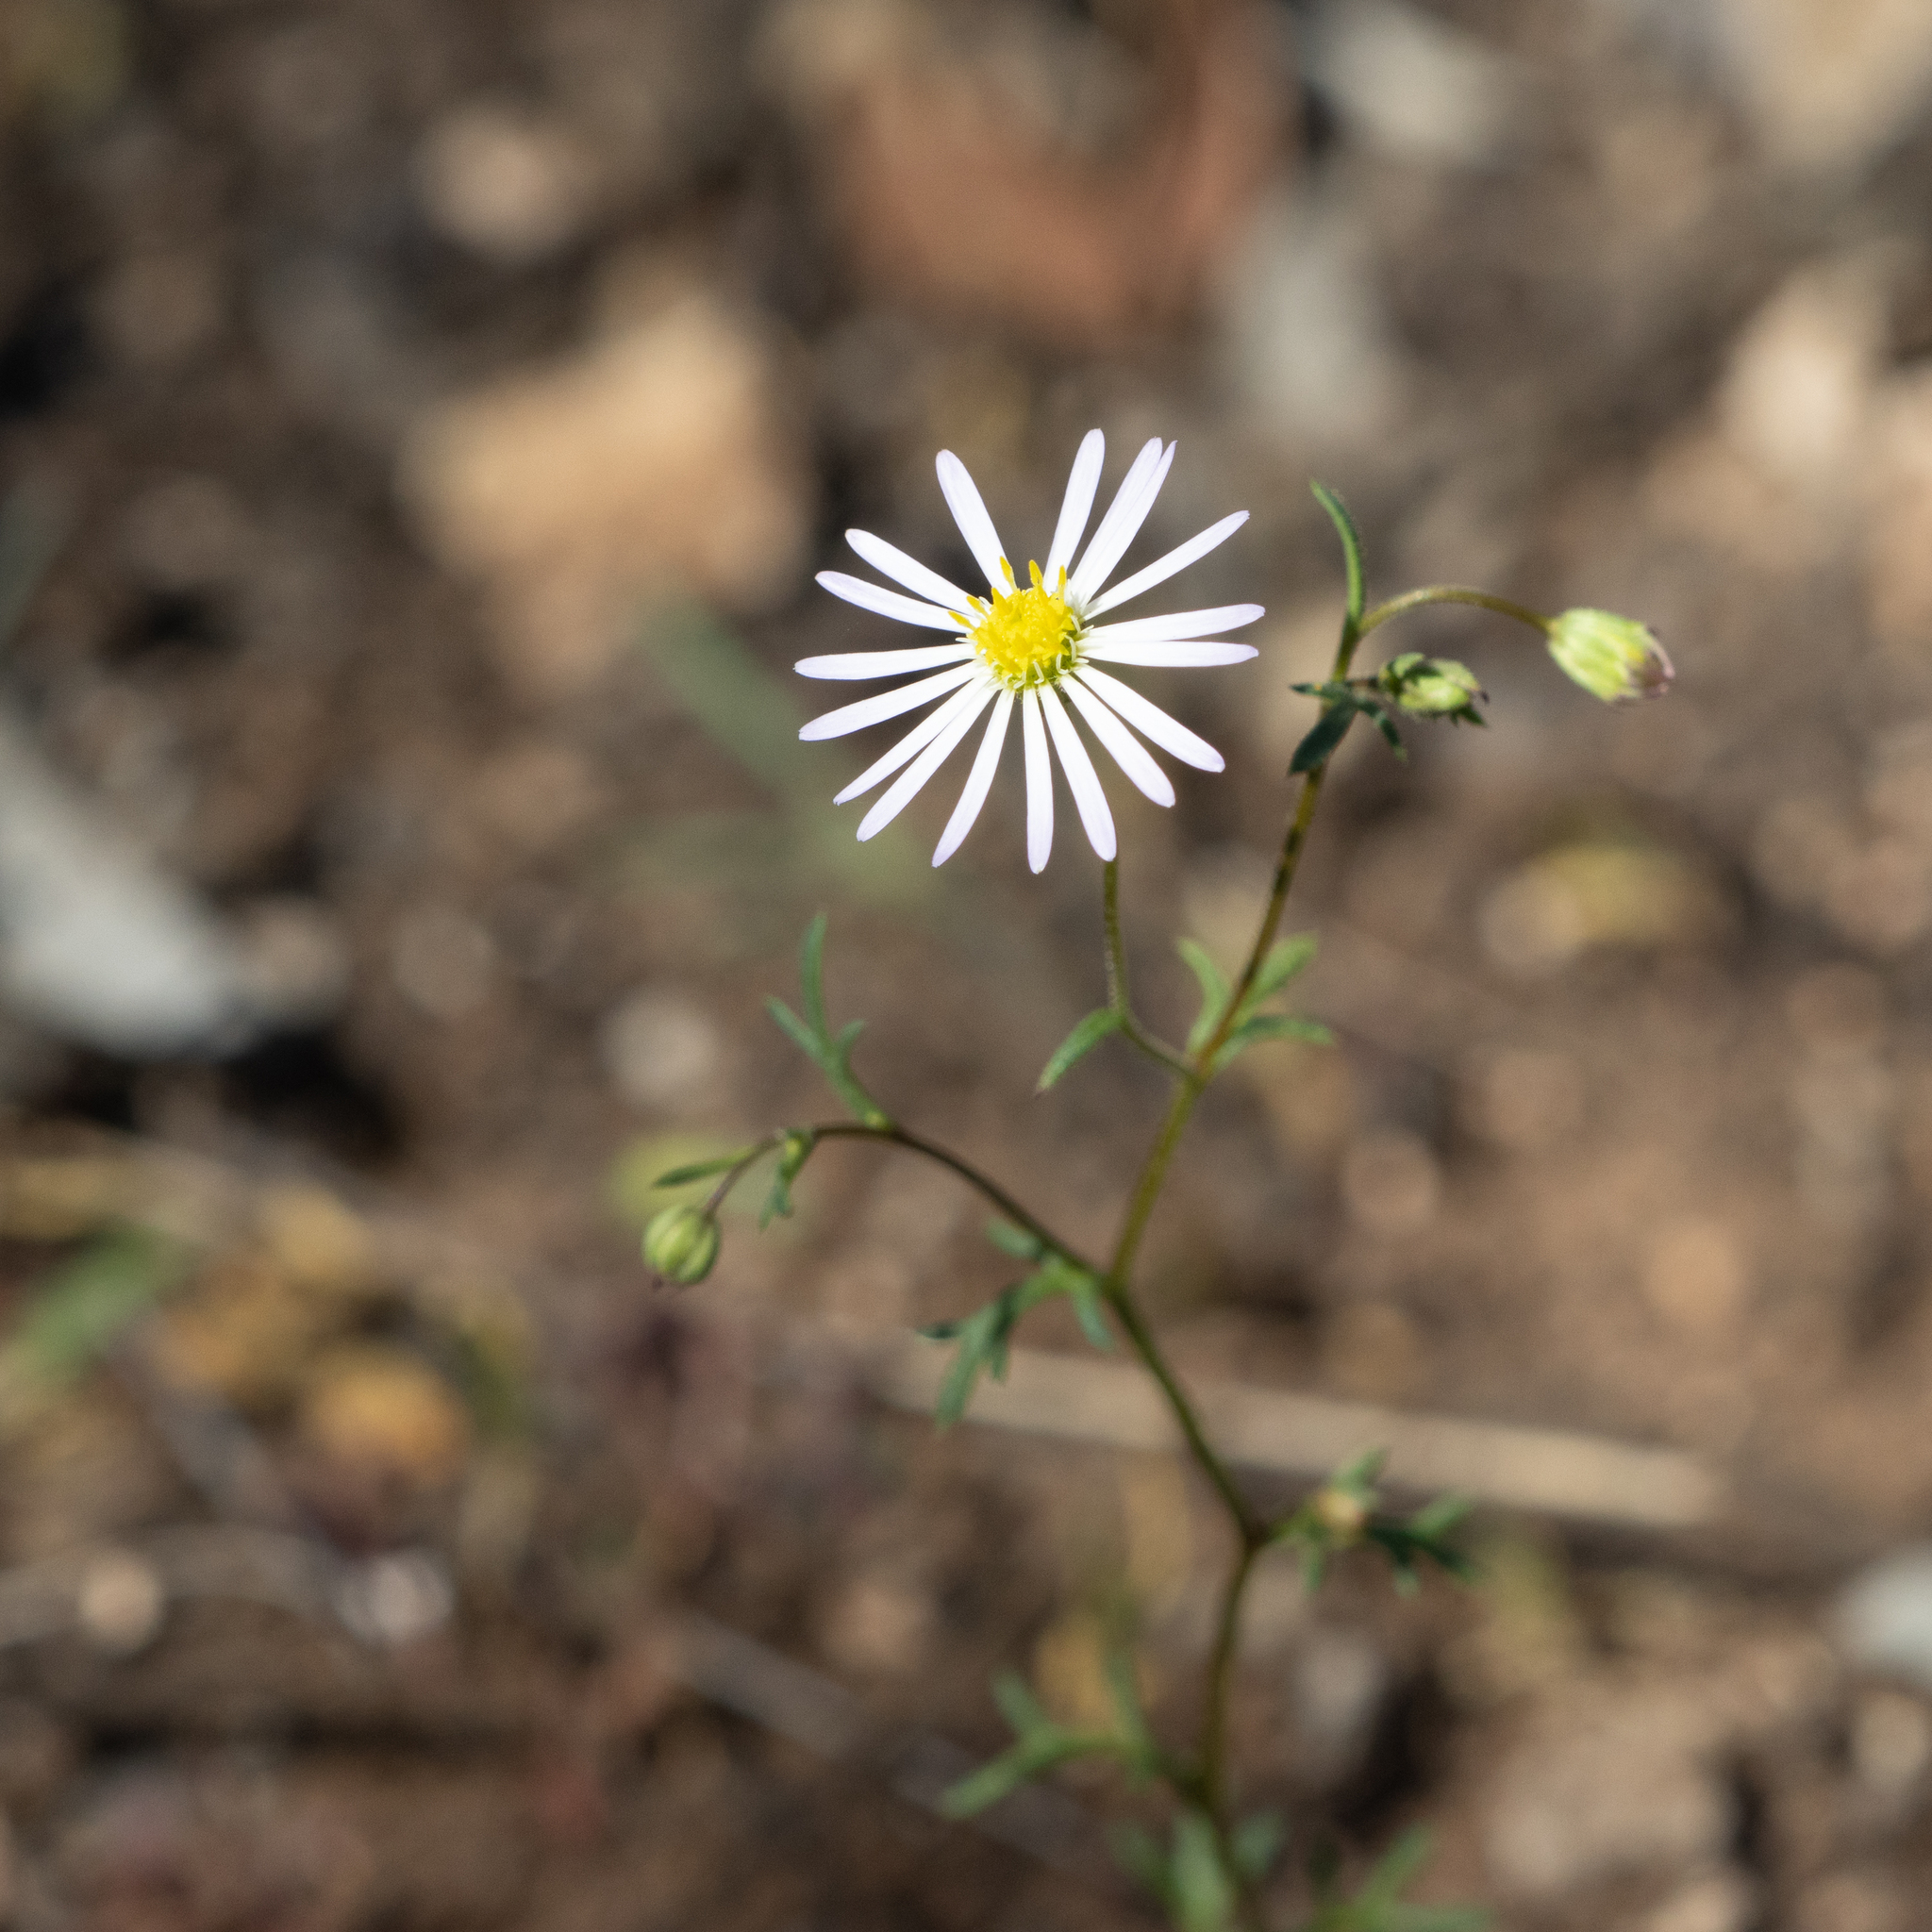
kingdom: Plantae
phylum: Tracheophyta
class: Magnoliopsida
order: Asterales
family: Asteraceae
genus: Brachyscome
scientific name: Brachyscome ciliaris
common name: Variable daisy
